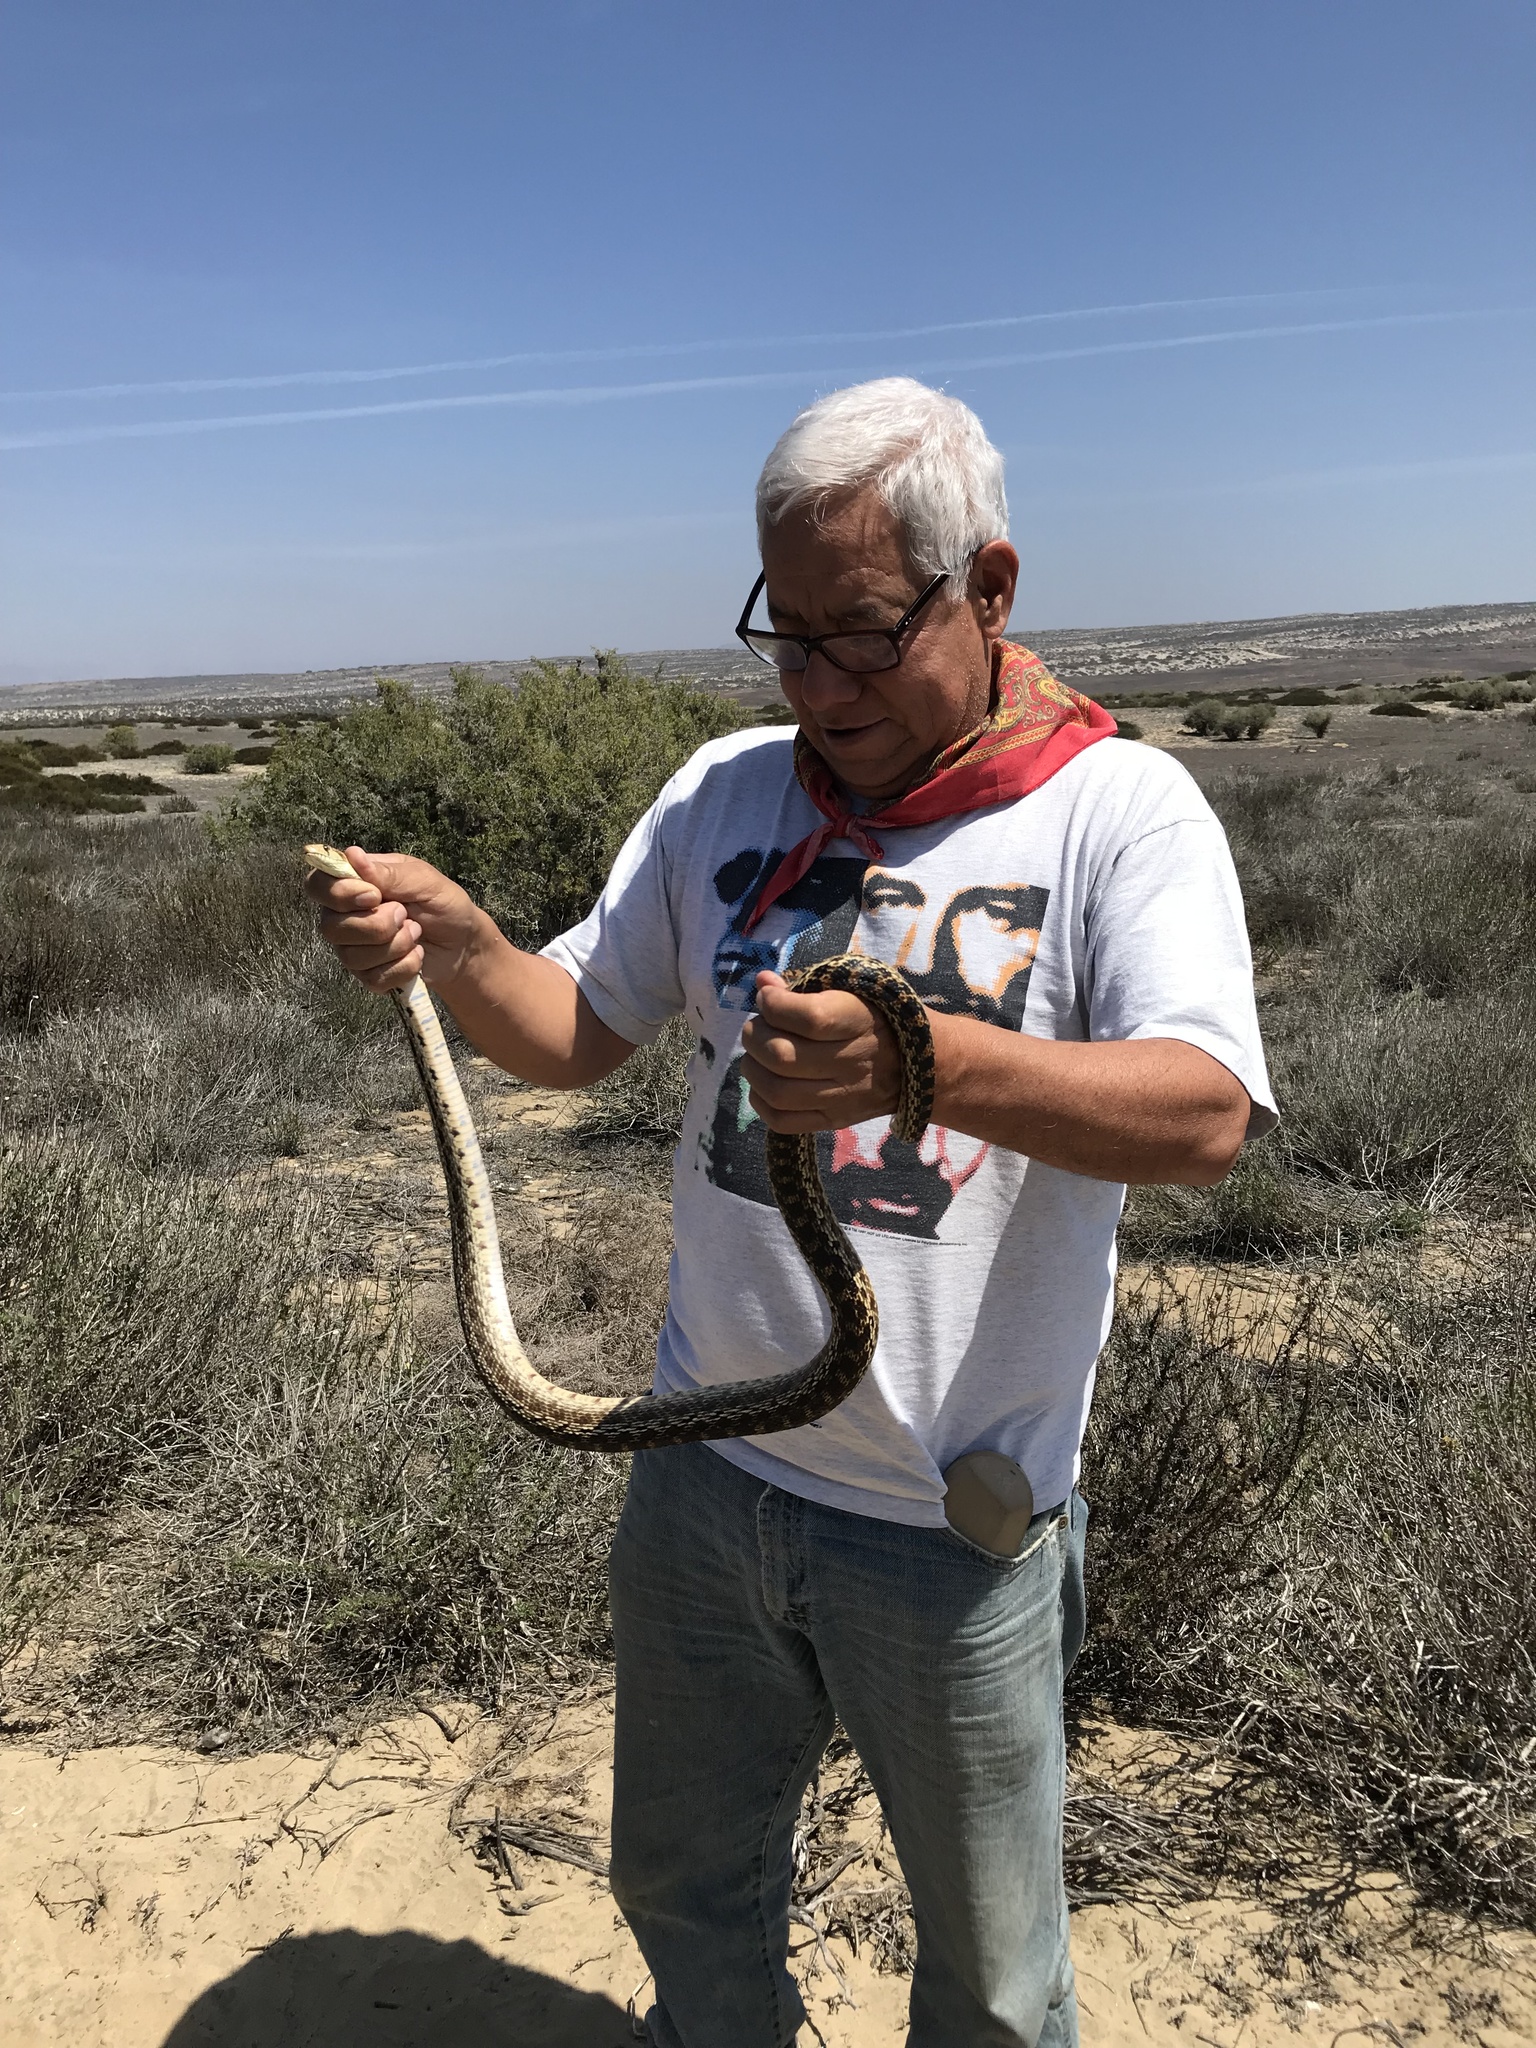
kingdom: Animalia
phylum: Chordata
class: Squamata
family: Colubridae
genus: Pituophis
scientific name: Pituophis catenifer
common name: Gopher snake
